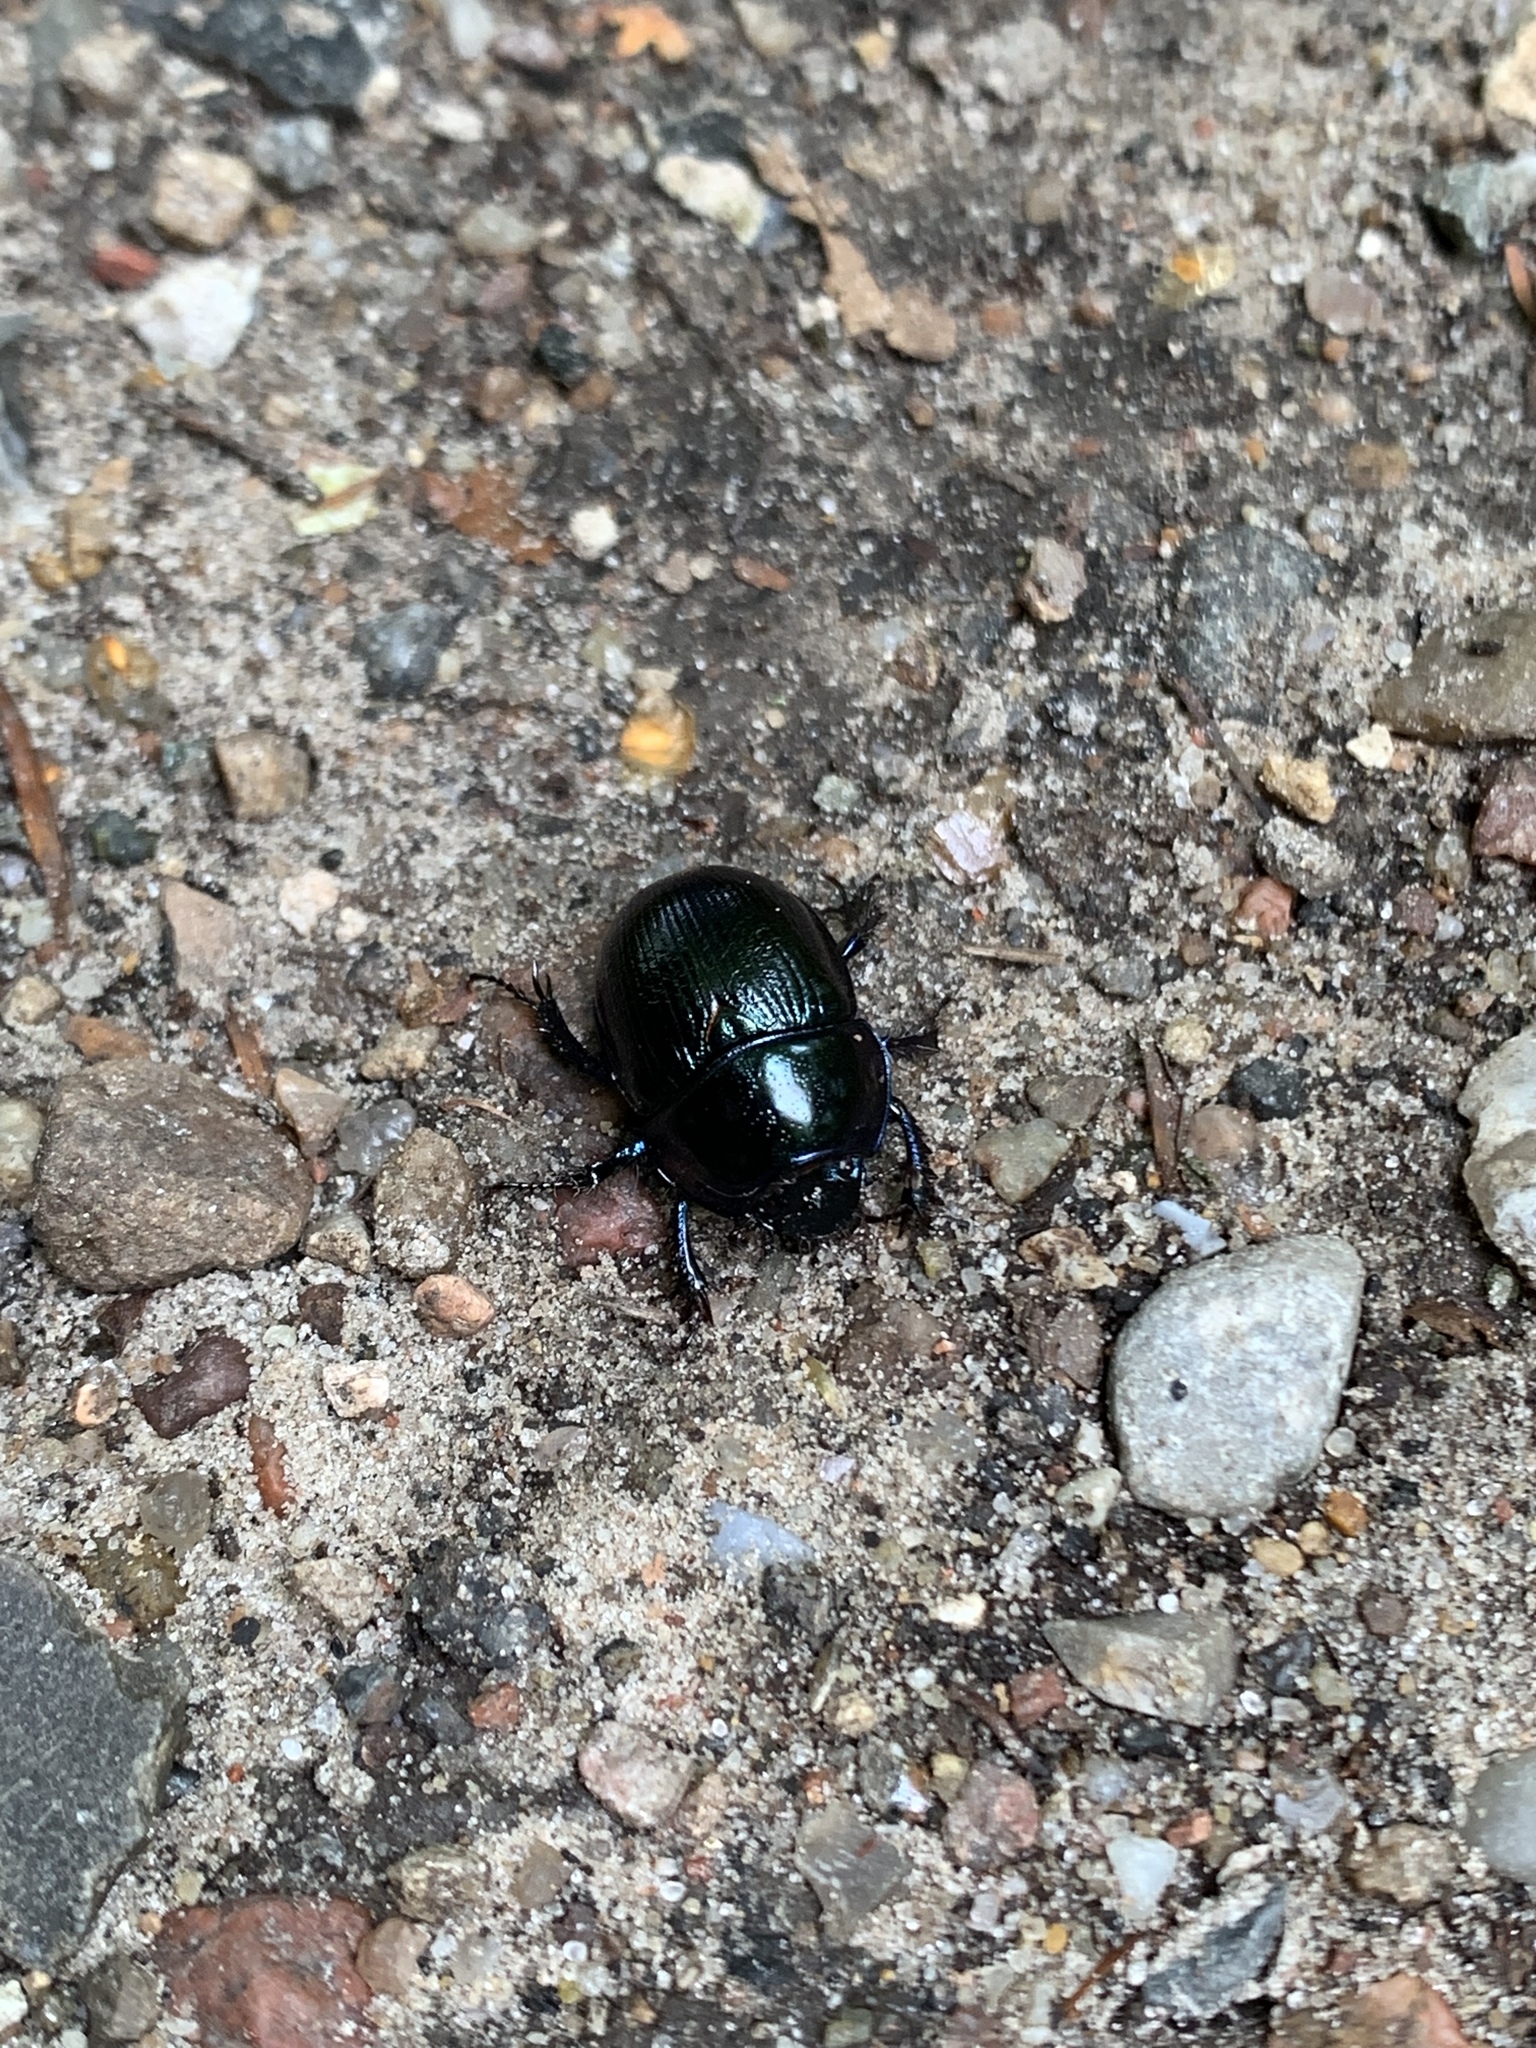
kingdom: Animalia
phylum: Arthropoda
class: Insecta
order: Coleoptera
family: Geotrupidae
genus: Anoplotrupes
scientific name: Anoplotrupes stercorosus
